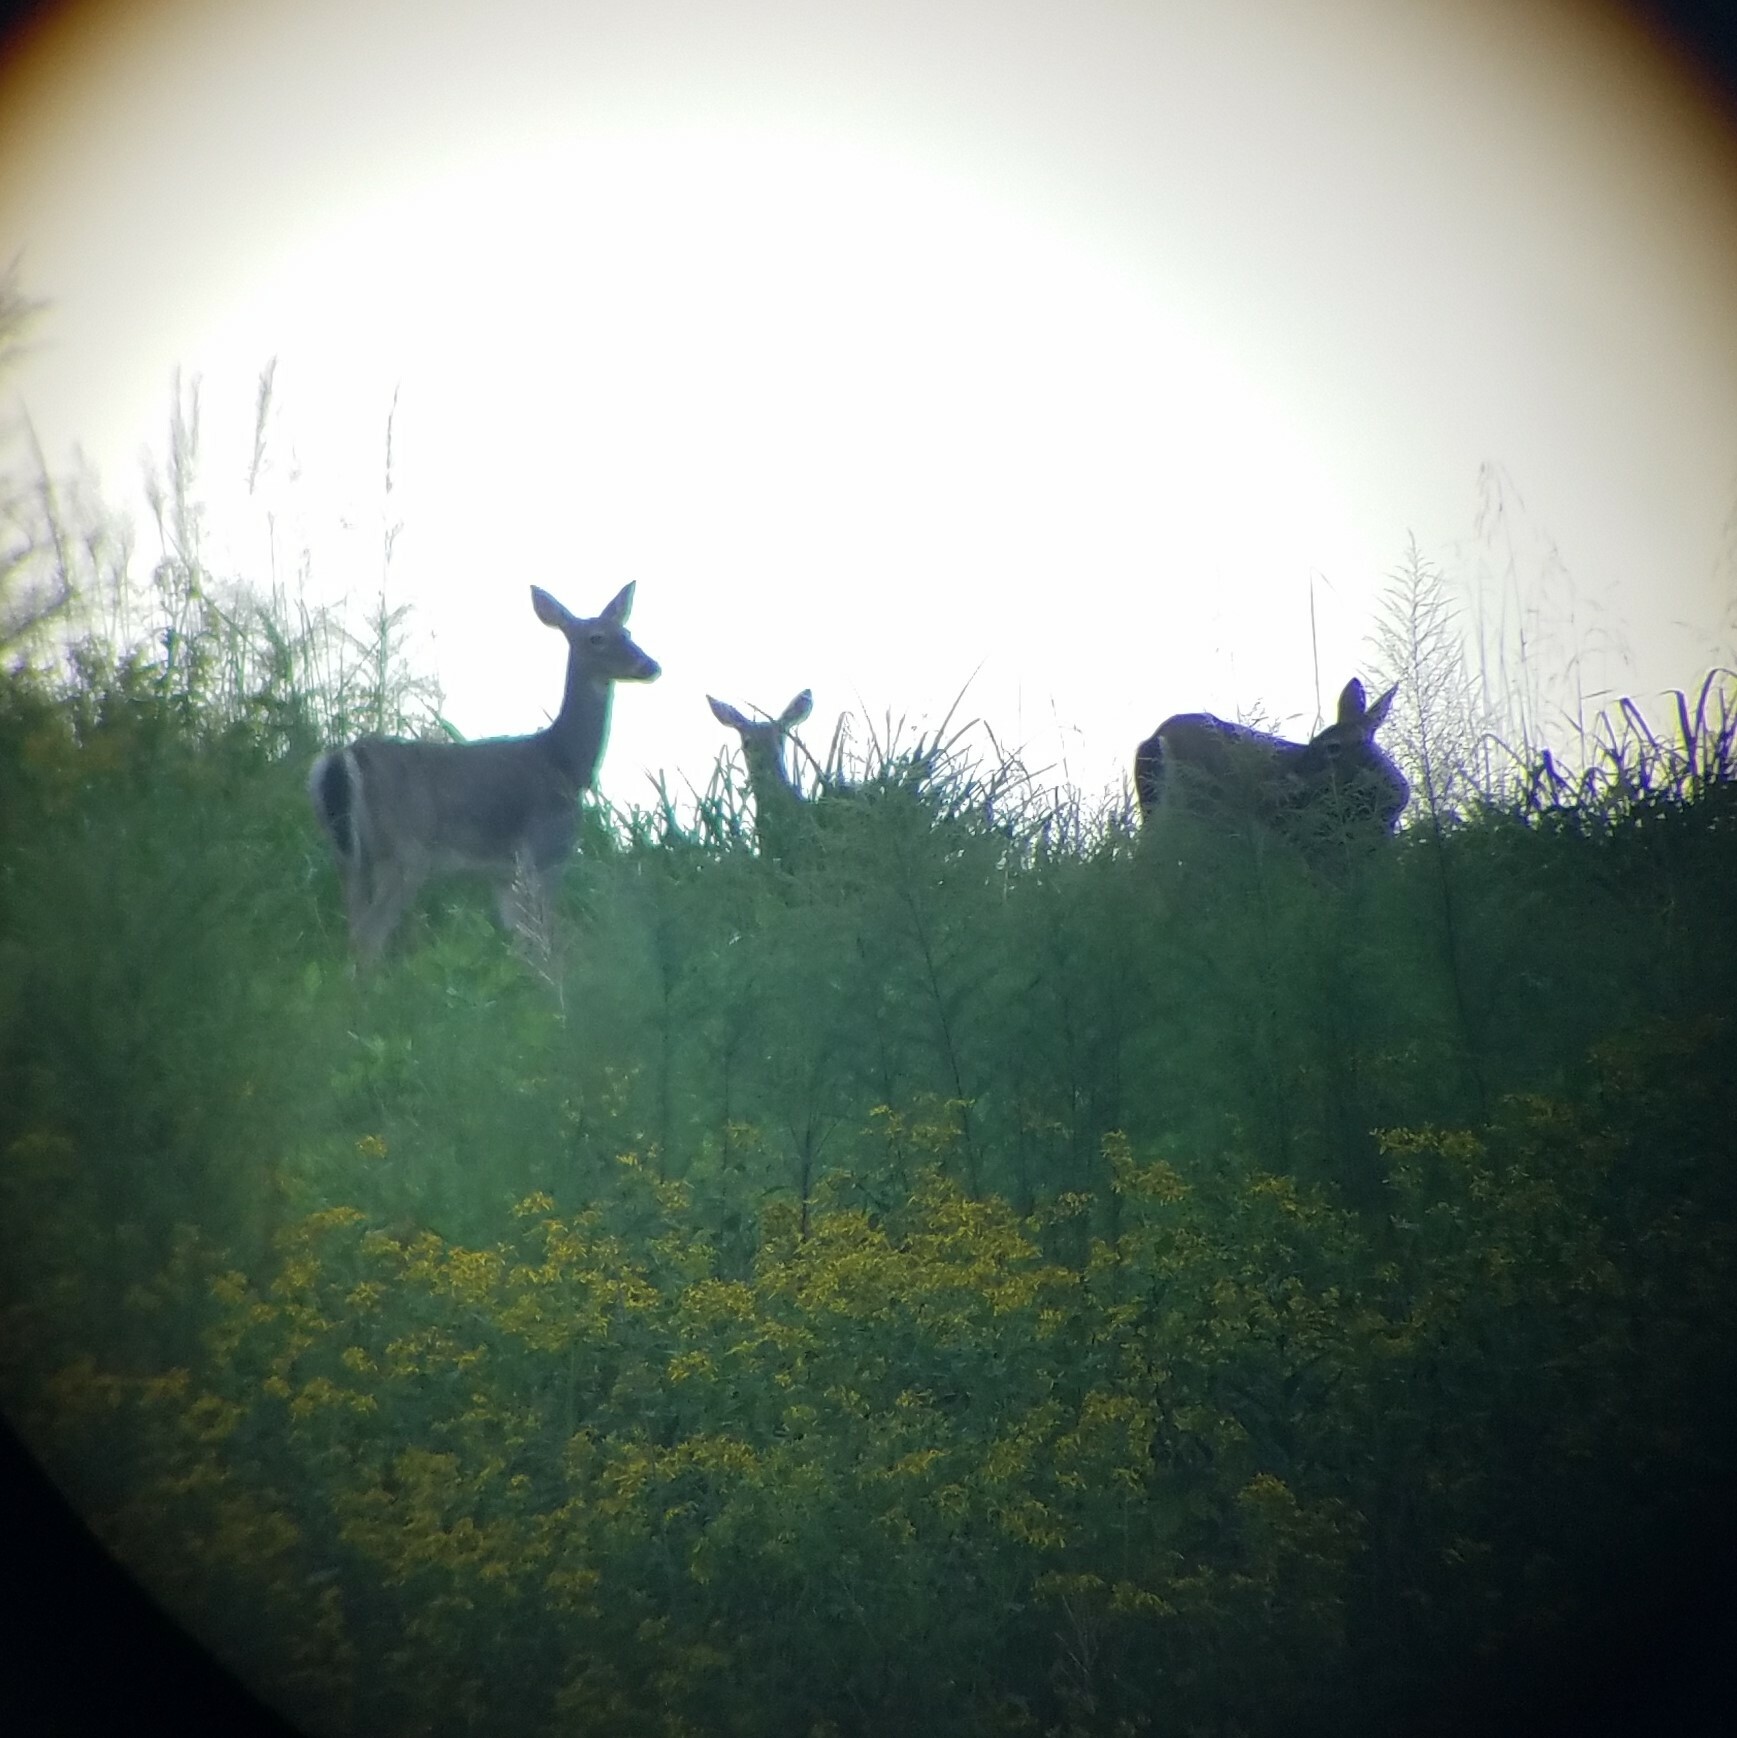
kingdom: Animalia
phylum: Chordata
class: Mammalia
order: Artiodactyla
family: Cervidae
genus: Odocoileus
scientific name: Odocoileus virginianus
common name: White-tailed deer
